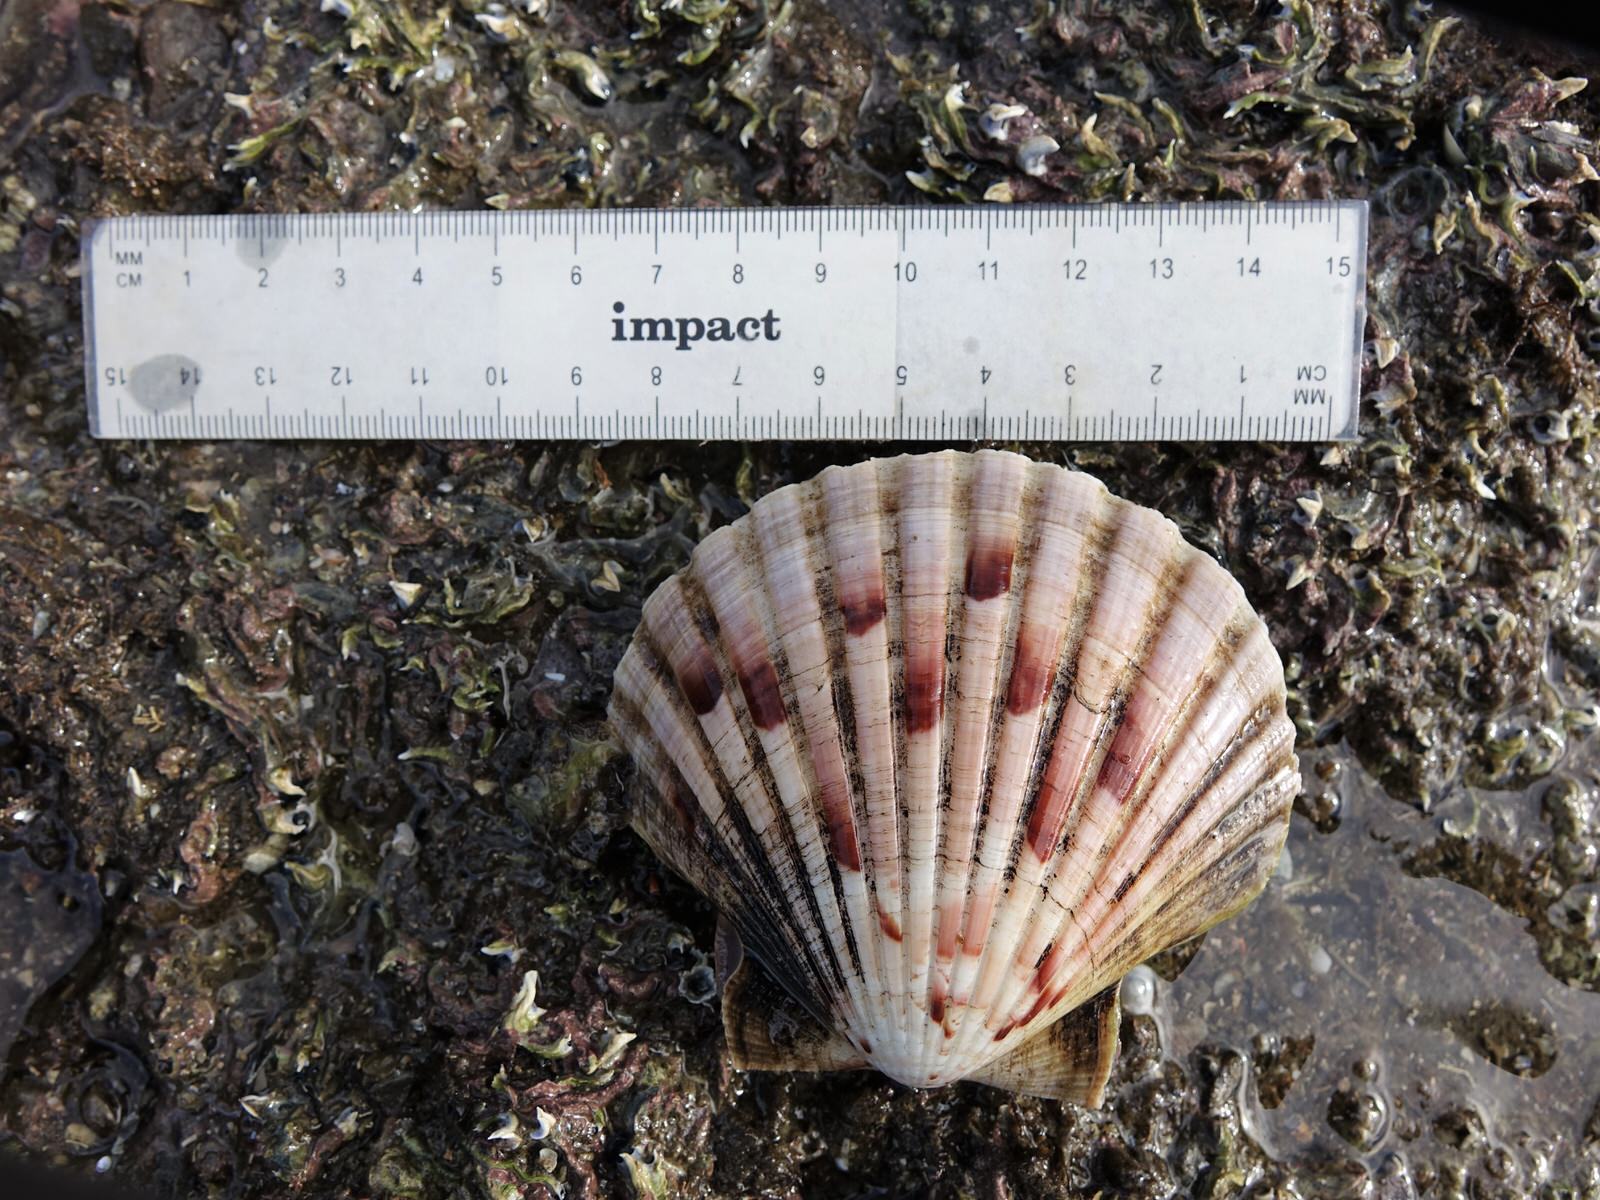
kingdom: Animalia
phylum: Mollusca
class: Bivalvia
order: Pectinida
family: Pectinidae
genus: Pecten
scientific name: Pecten novaezelandiae
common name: New zealand scallop
